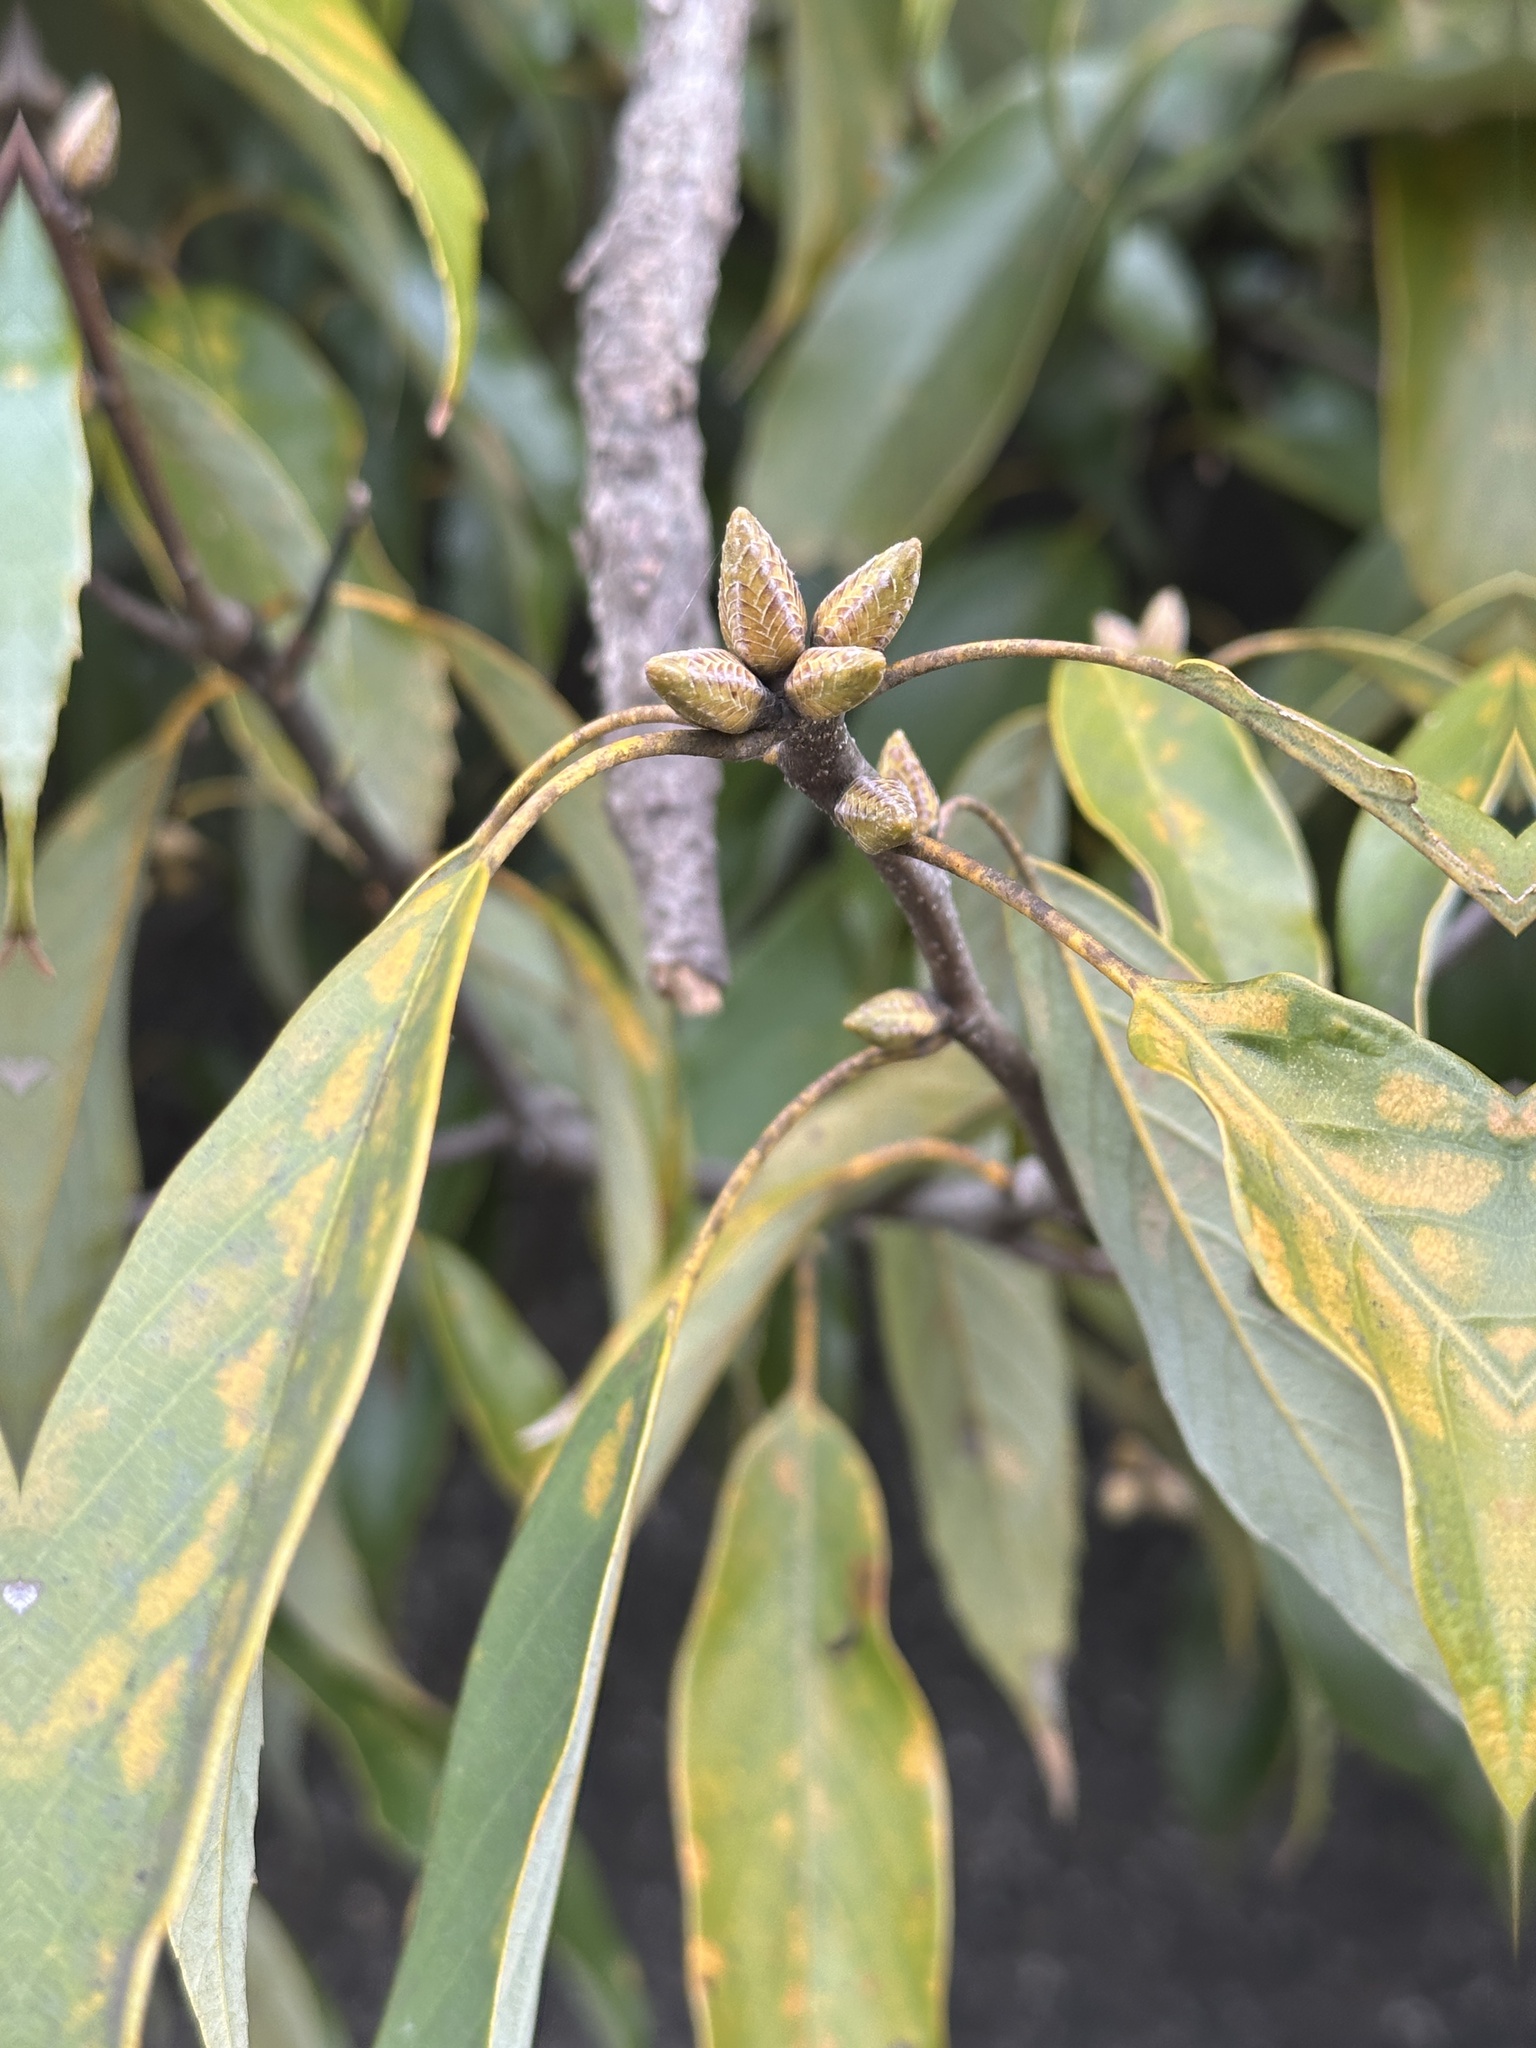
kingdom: Plantae
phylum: Tracheophyta
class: Magnoliopsida
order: Fagales
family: Fagaceae
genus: Quercus
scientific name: Quercus glauca
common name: Ring-cup oak
